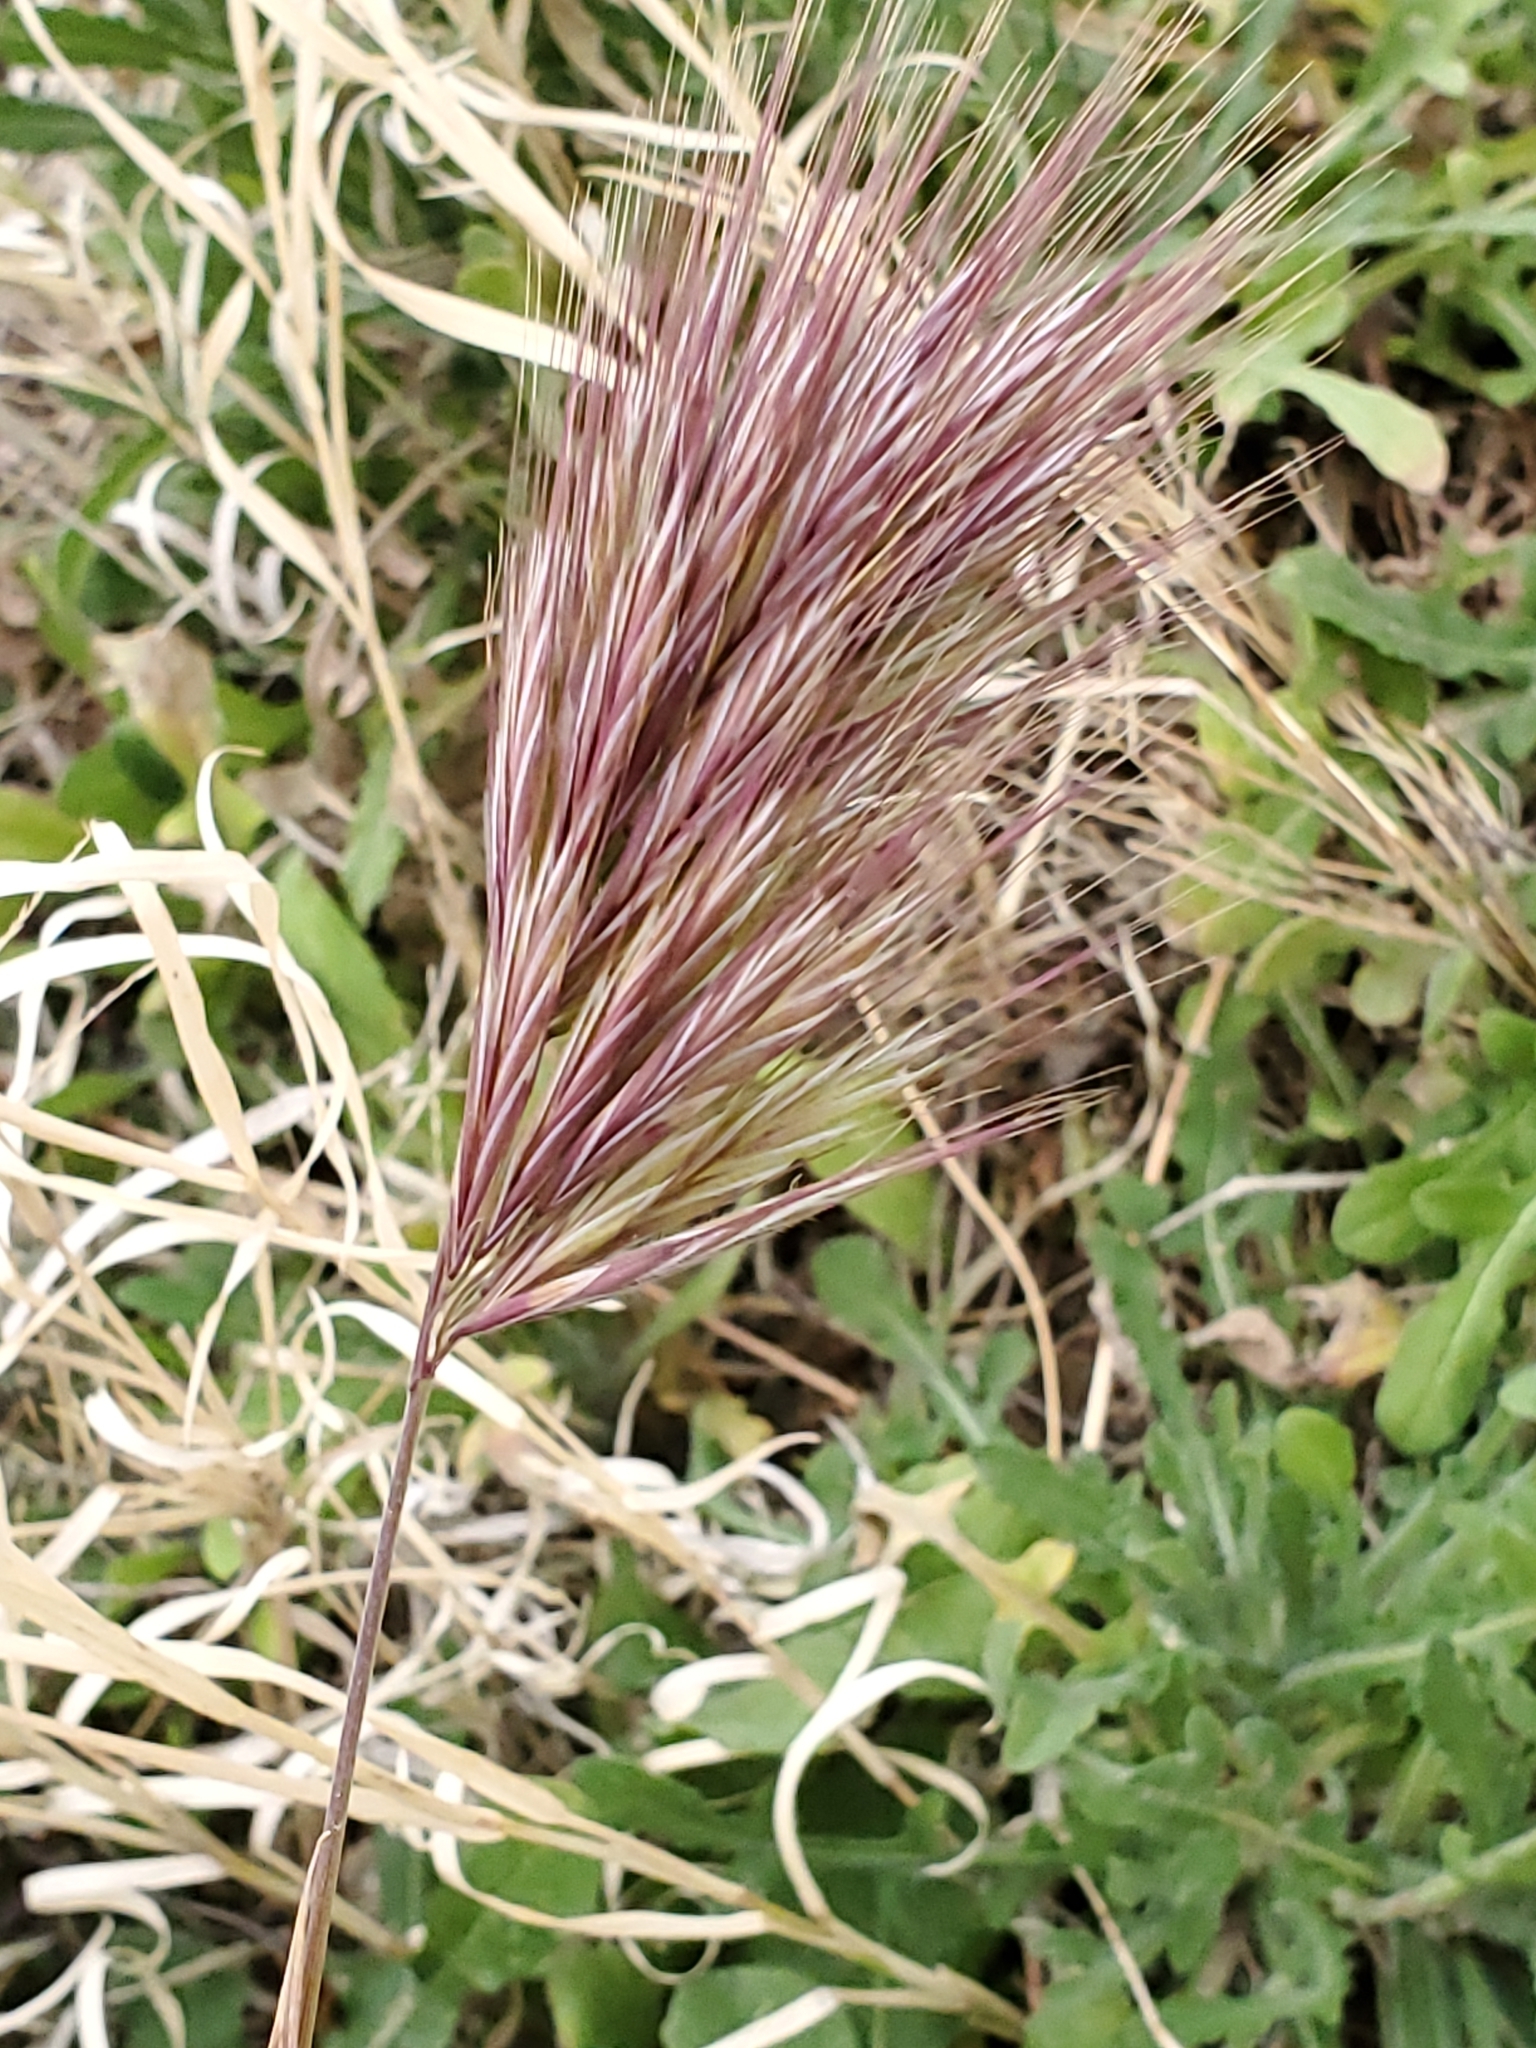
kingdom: Plantae
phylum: Tracheophyta
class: Liliopsida
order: Poales
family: Poaceae
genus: Bromus
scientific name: Bromus rubens
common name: Red brome
